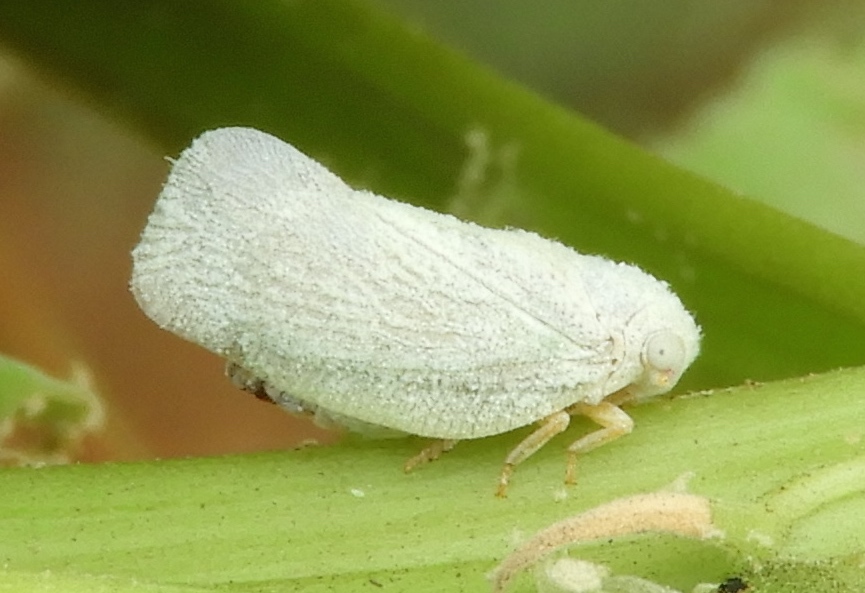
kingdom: Animalia
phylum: Arthropoda
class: Insecta
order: Hemiptera
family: Flatidae
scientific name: Flatidae
